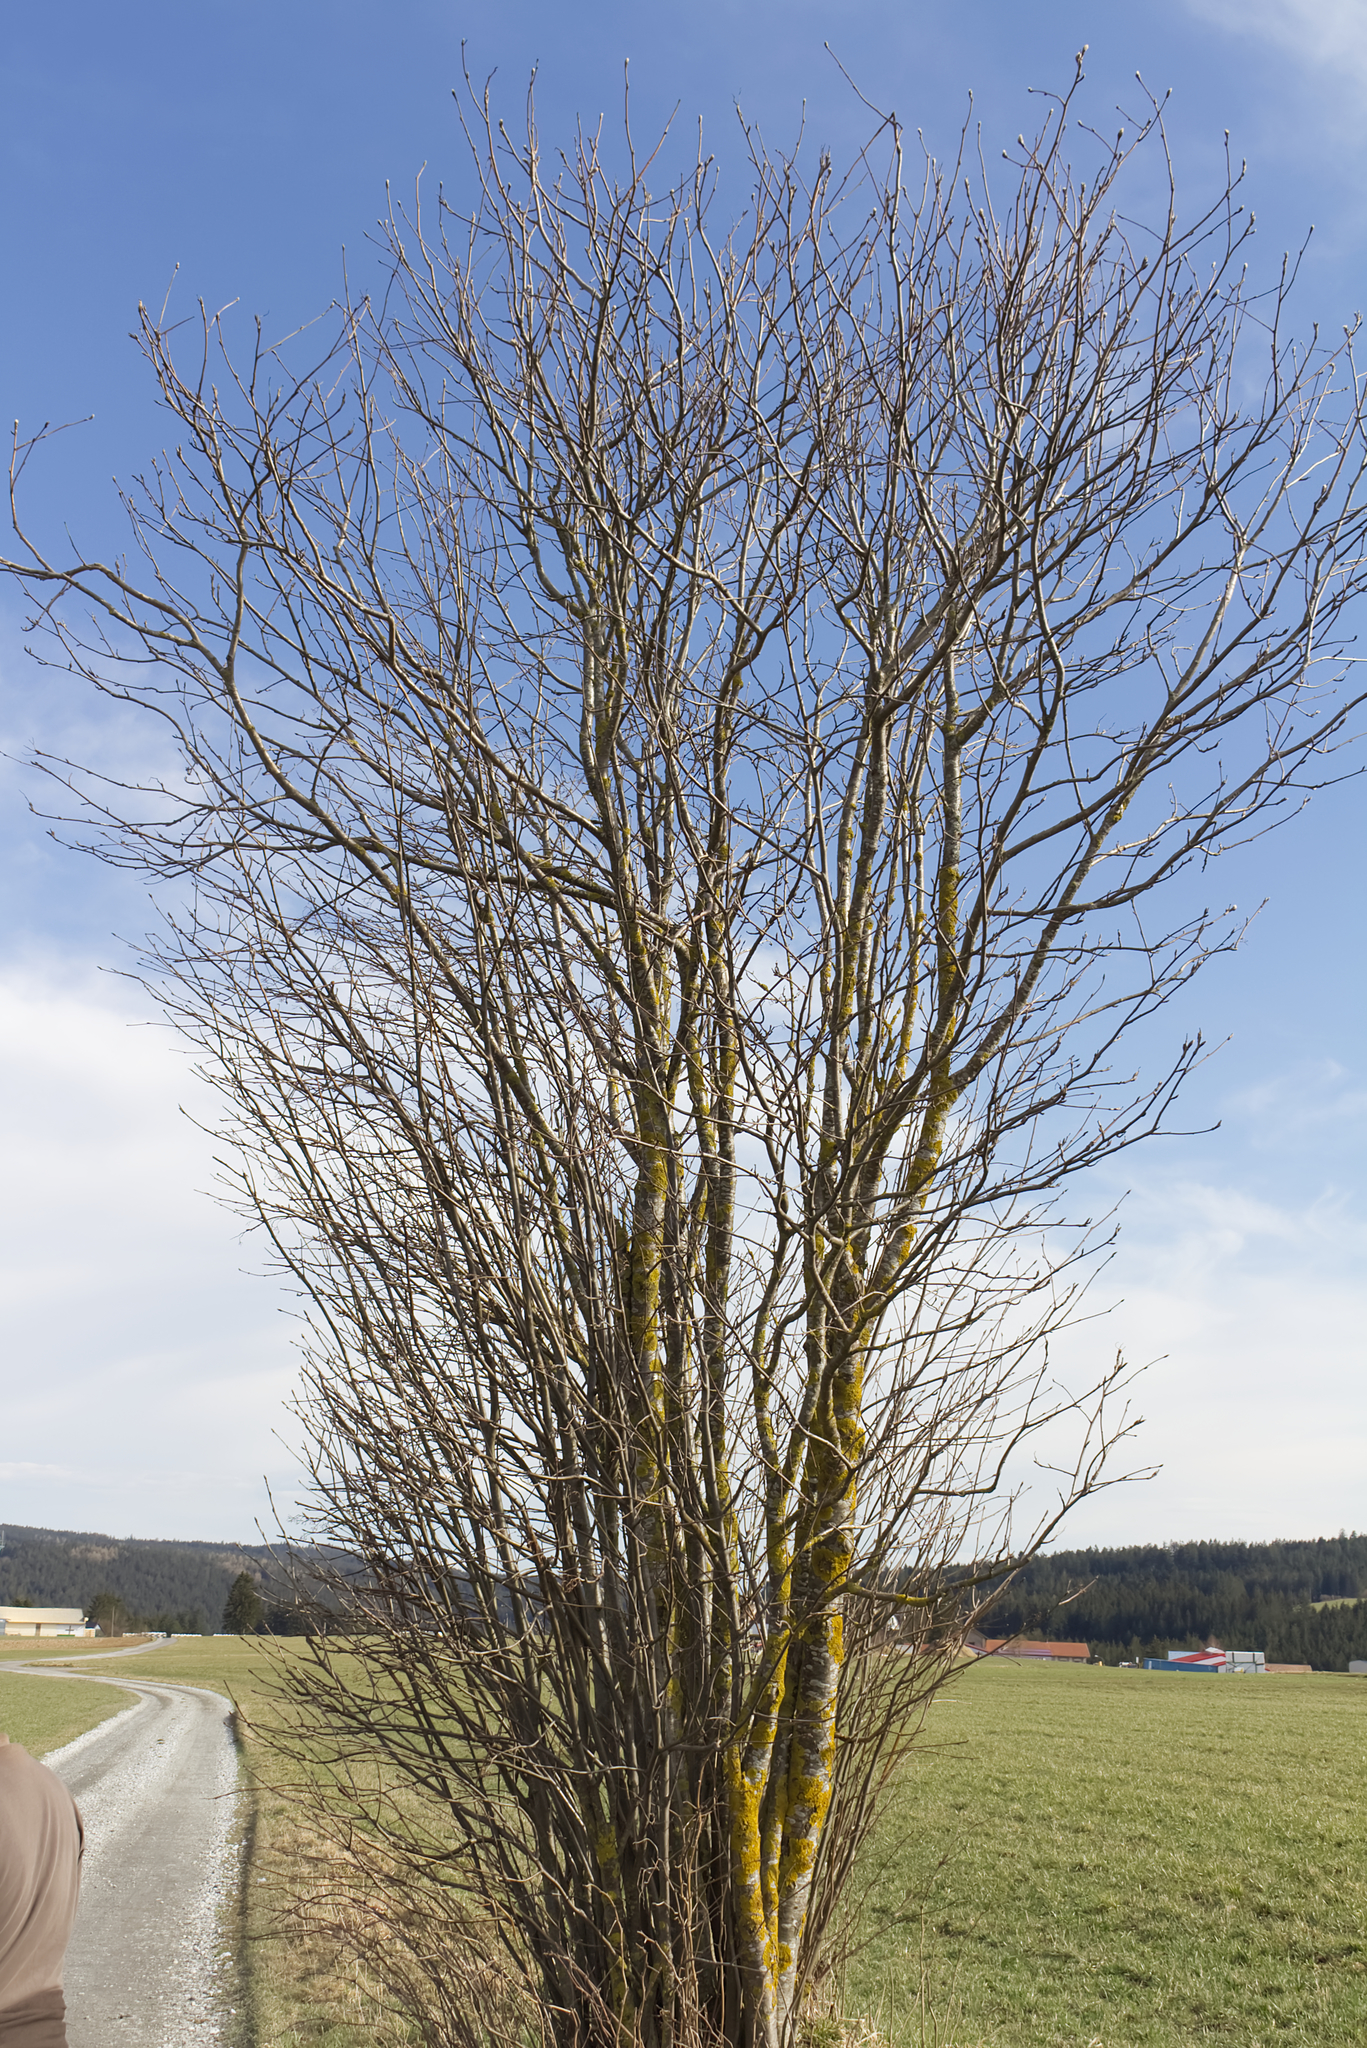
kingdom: Plantae
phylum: Tracheophyta
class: Magnoliopsida
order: Rosales
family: Rosaceae
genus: Sorbus
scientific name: Sorbus aucuparia
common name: Rowan
